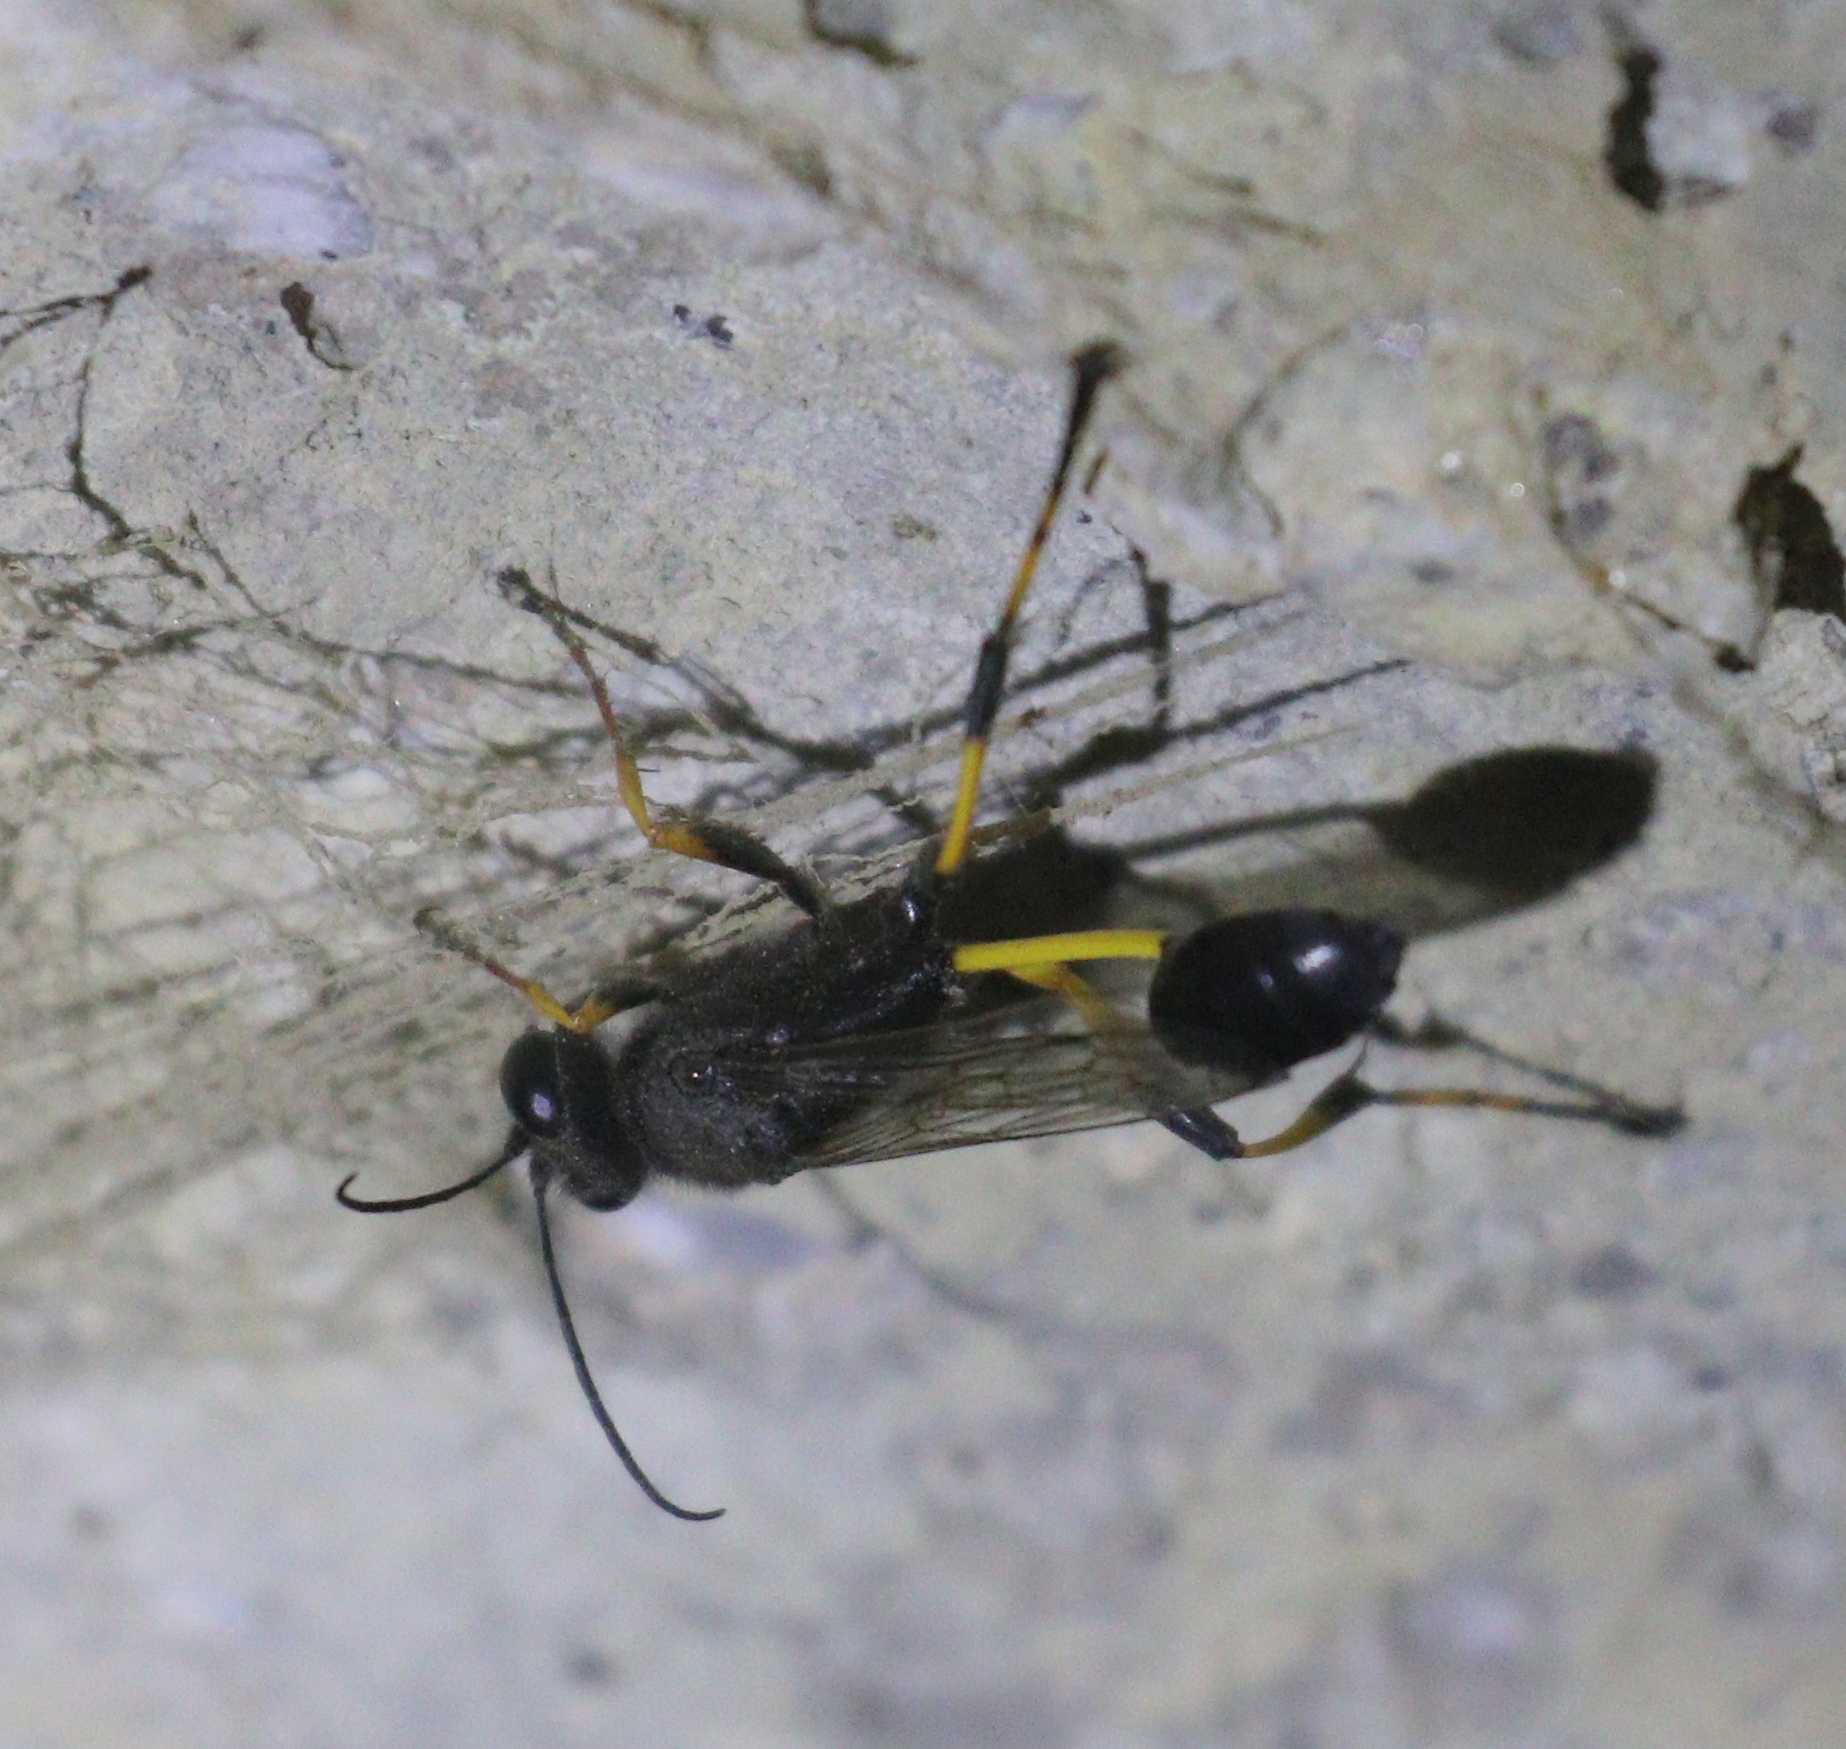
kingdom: Animalia
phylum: Arthropoda
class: Insecta
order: Hymenoptera
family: Sphecidae
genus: Sceliphron
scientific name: Sceliphron spirifex
